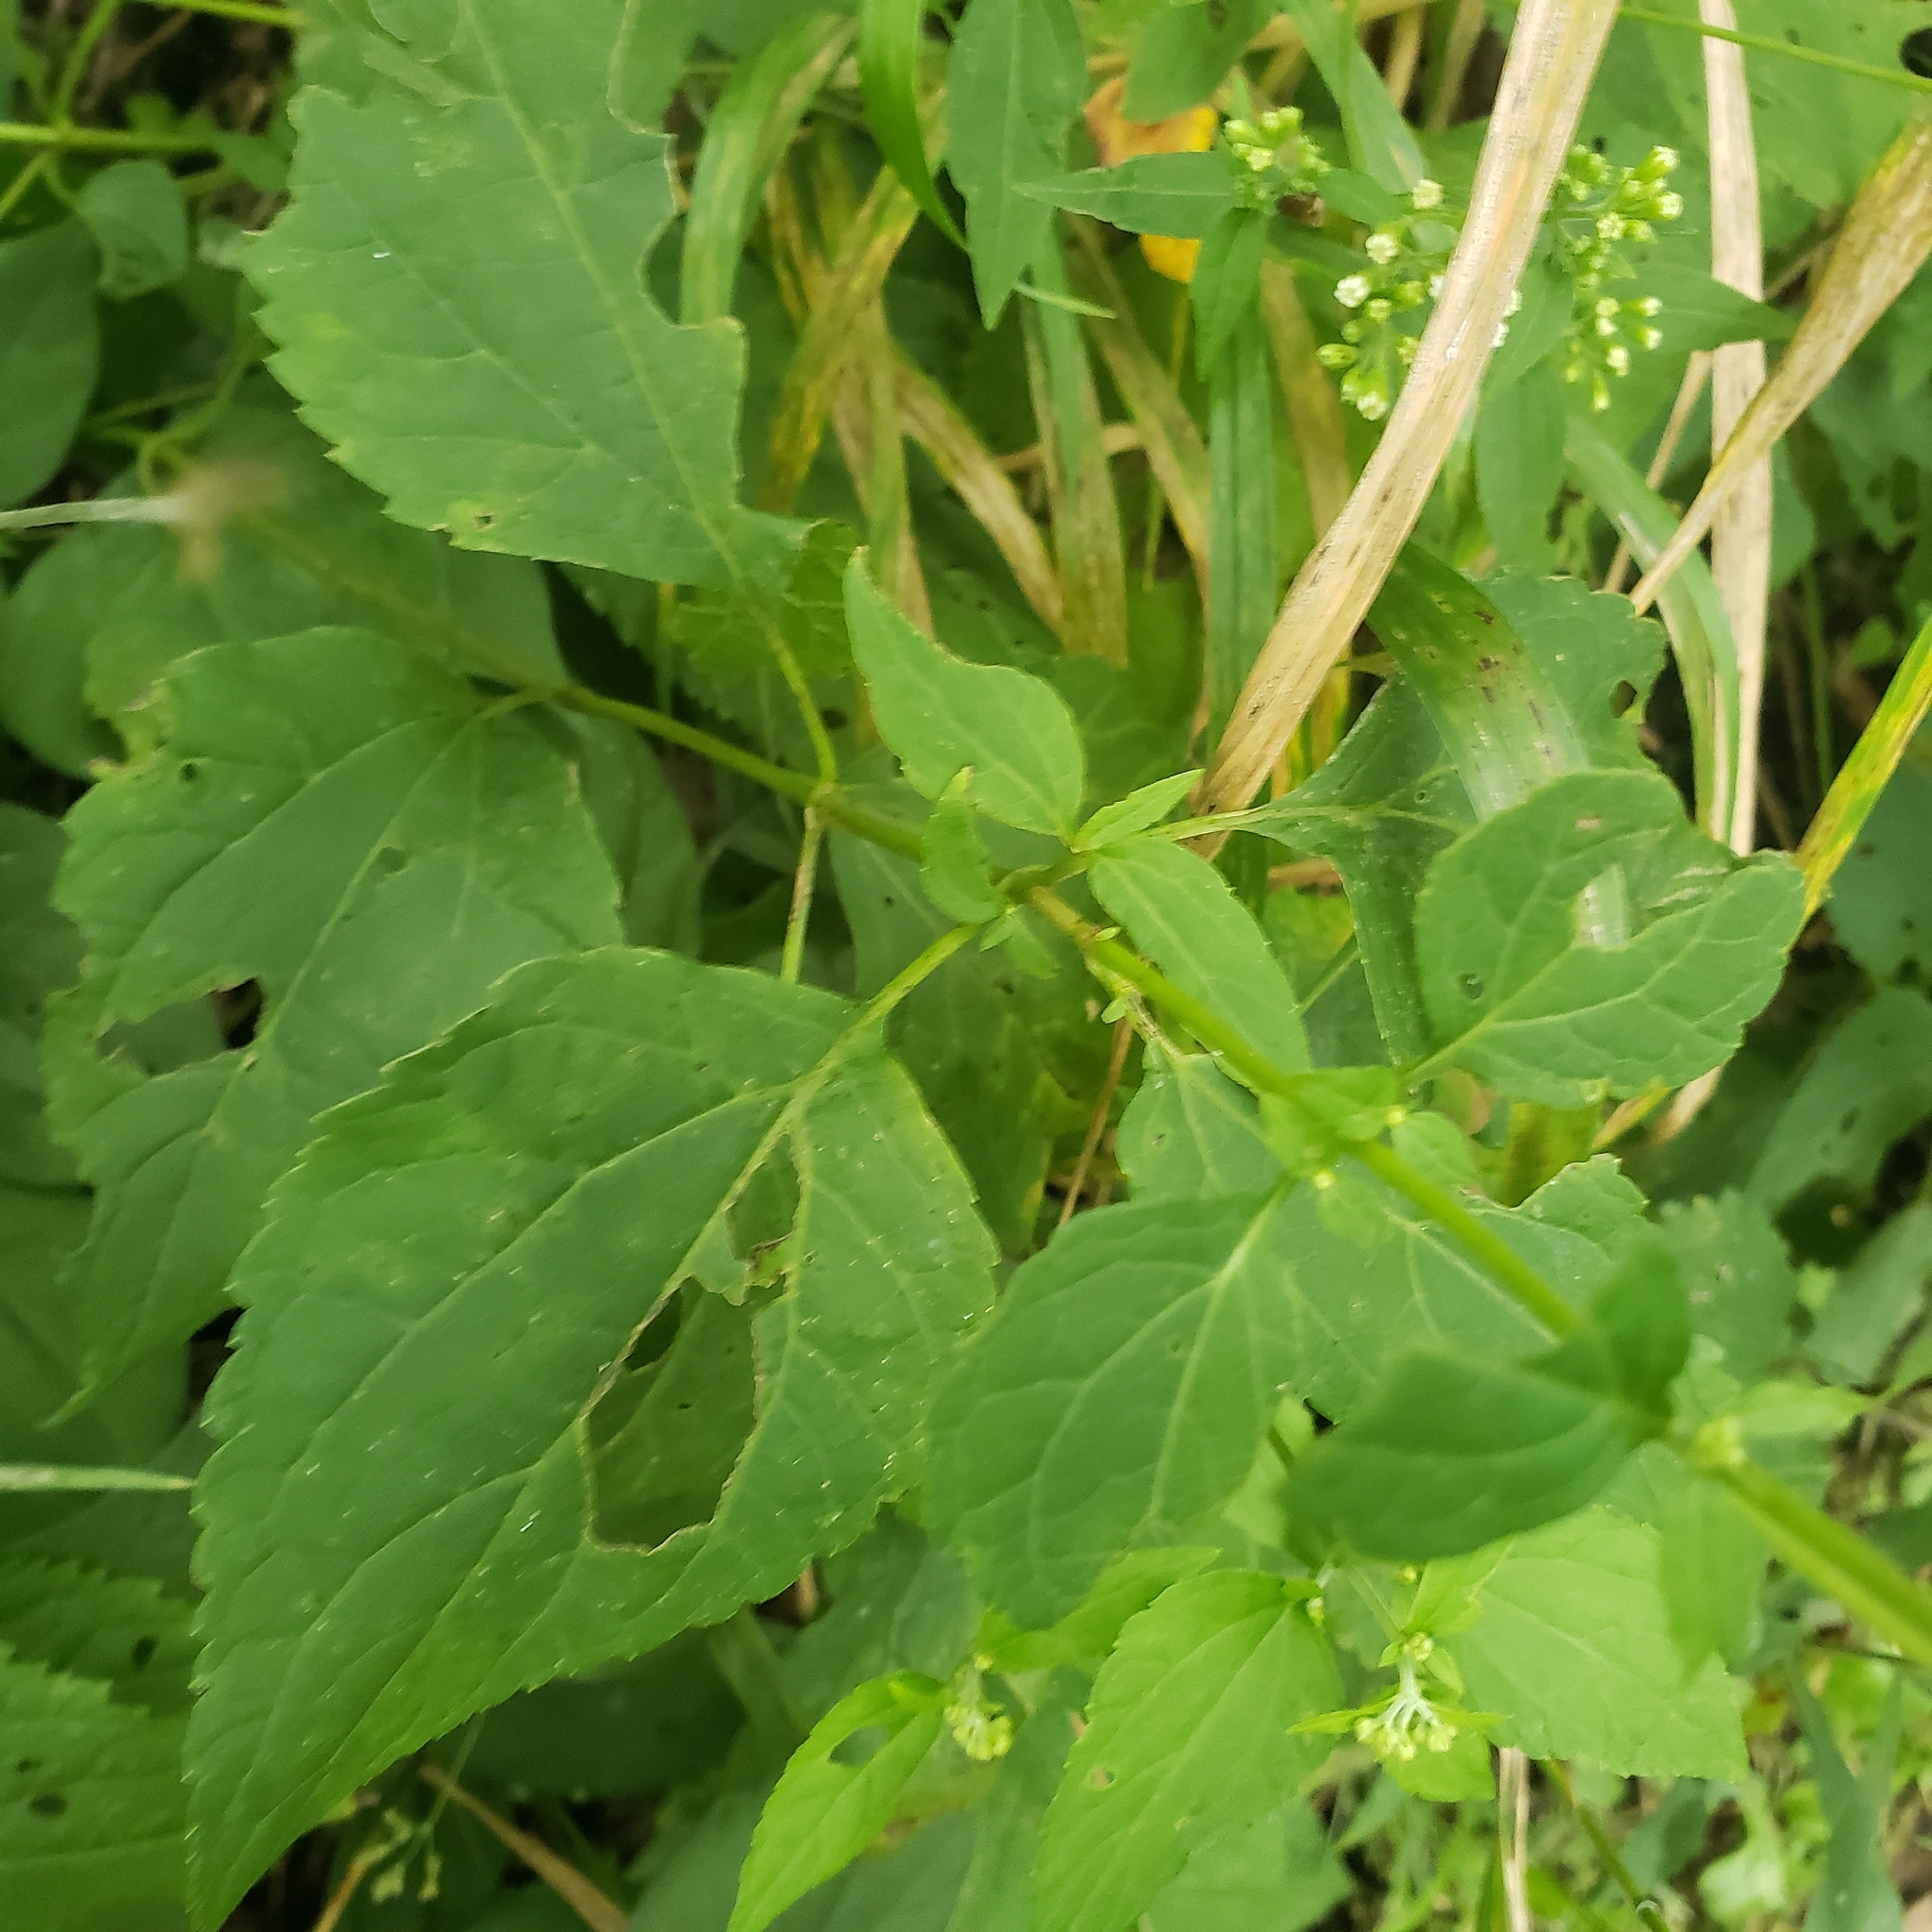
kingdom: Plantae
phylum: Tracheophyta
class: Magnoliopsida
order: Asterales
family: Asteraceae
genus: Ageratina
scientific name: Ageratina altissima
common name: White snakeroot
